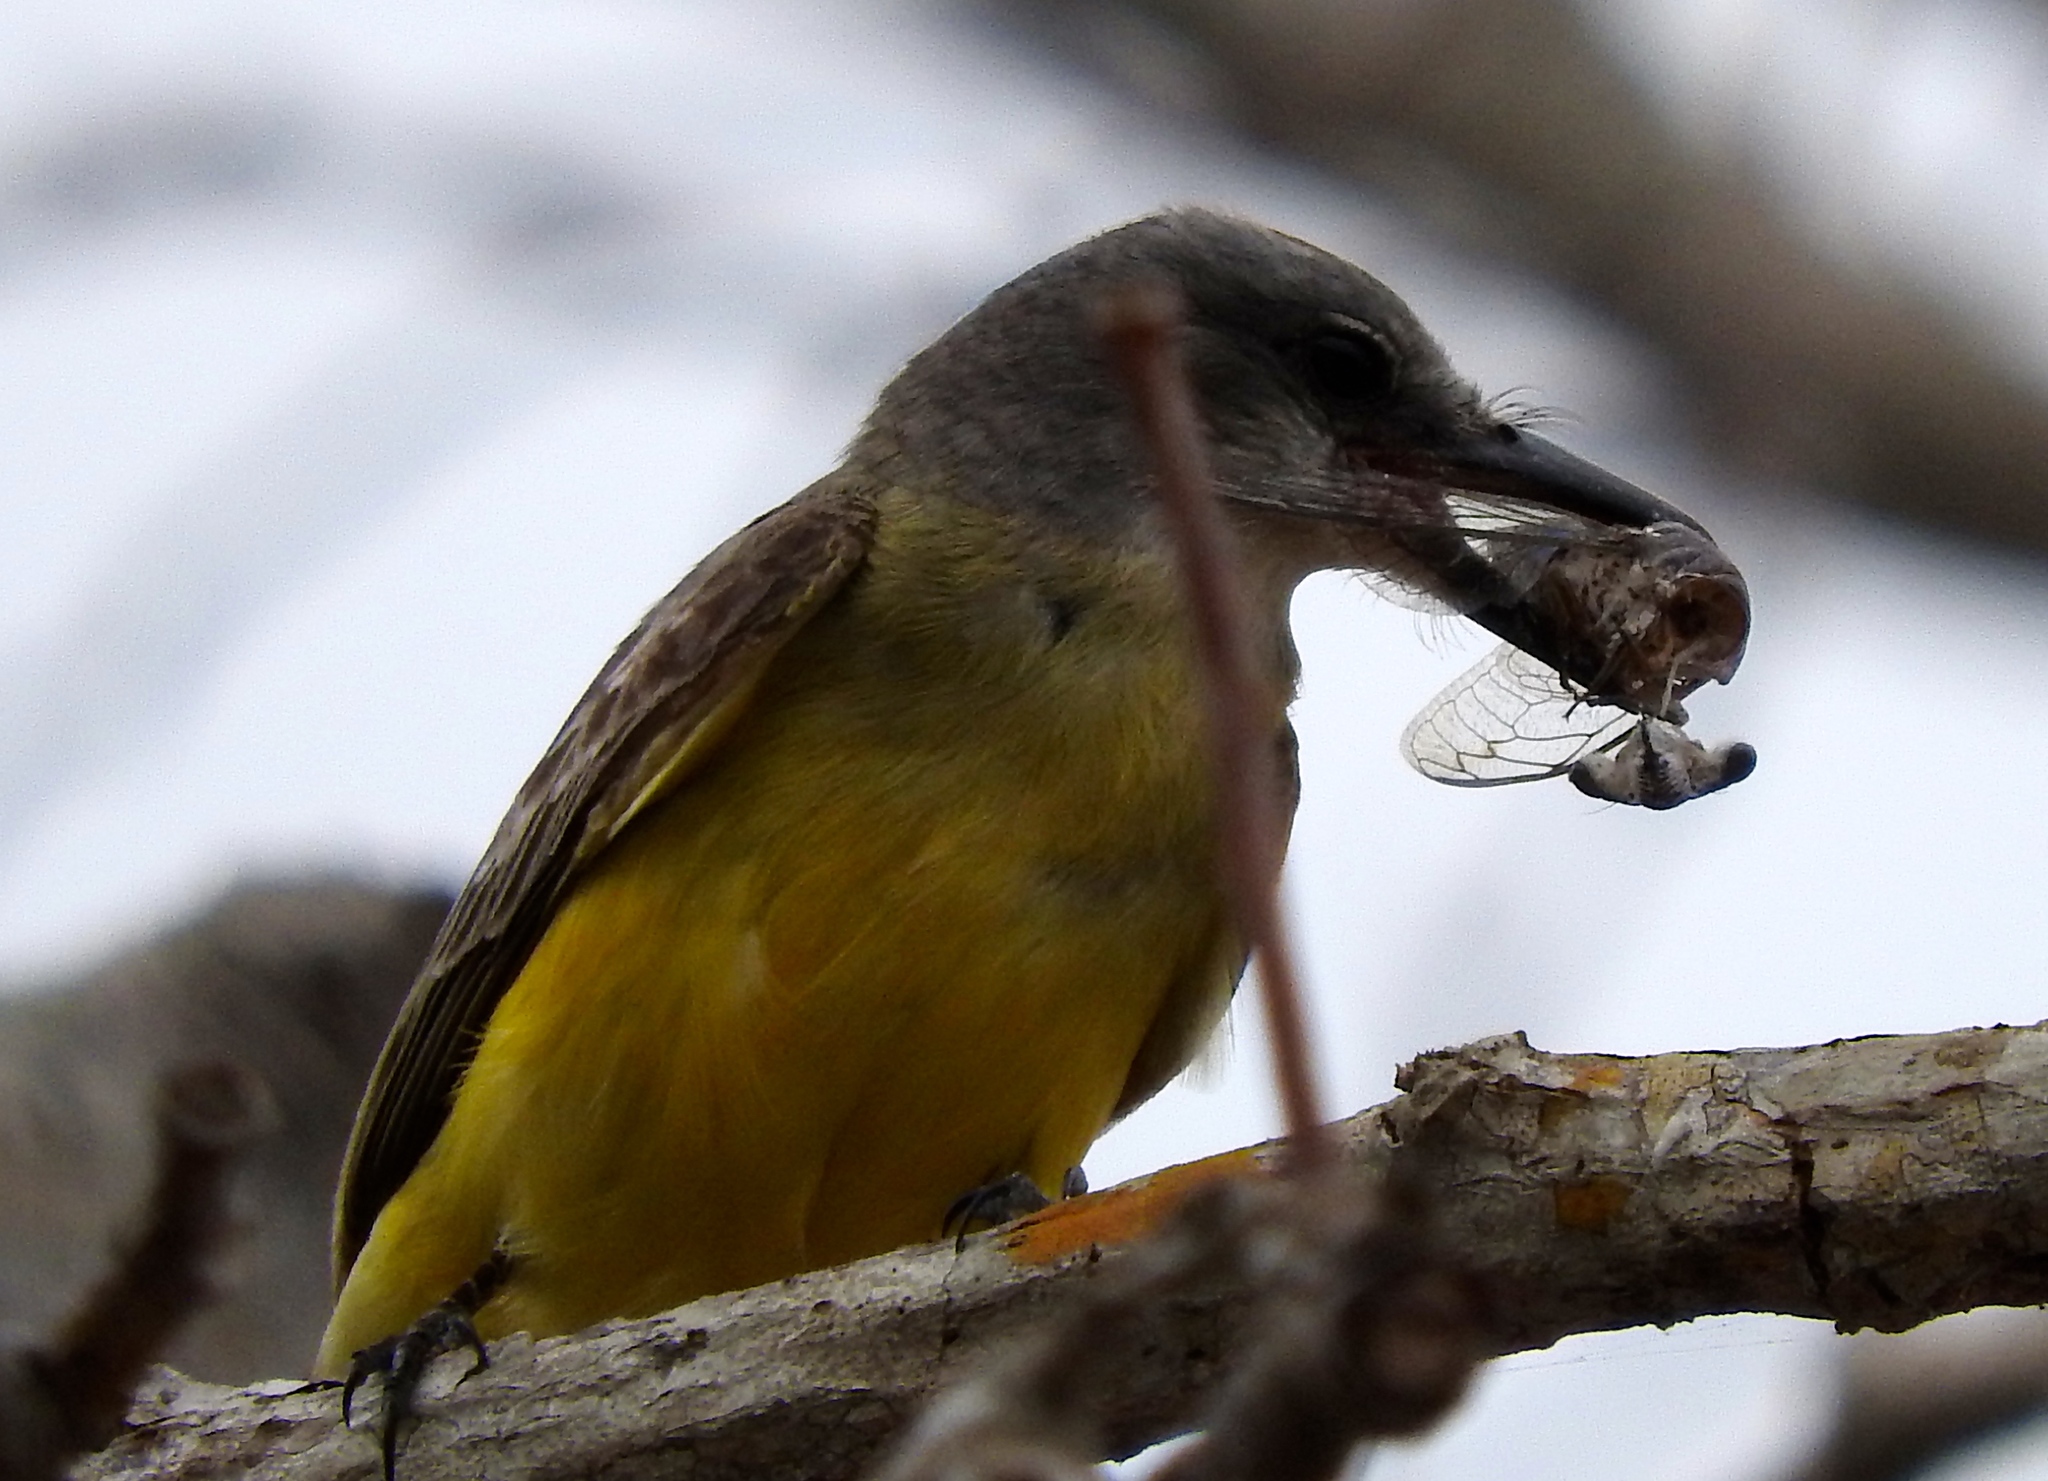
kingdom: Animalia
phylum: Chordata
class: Aves
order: Passeriformes
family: Tyrannidae
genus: Tyrannus
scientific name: Tyrannus melancholicus
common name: Tropical kingbird
